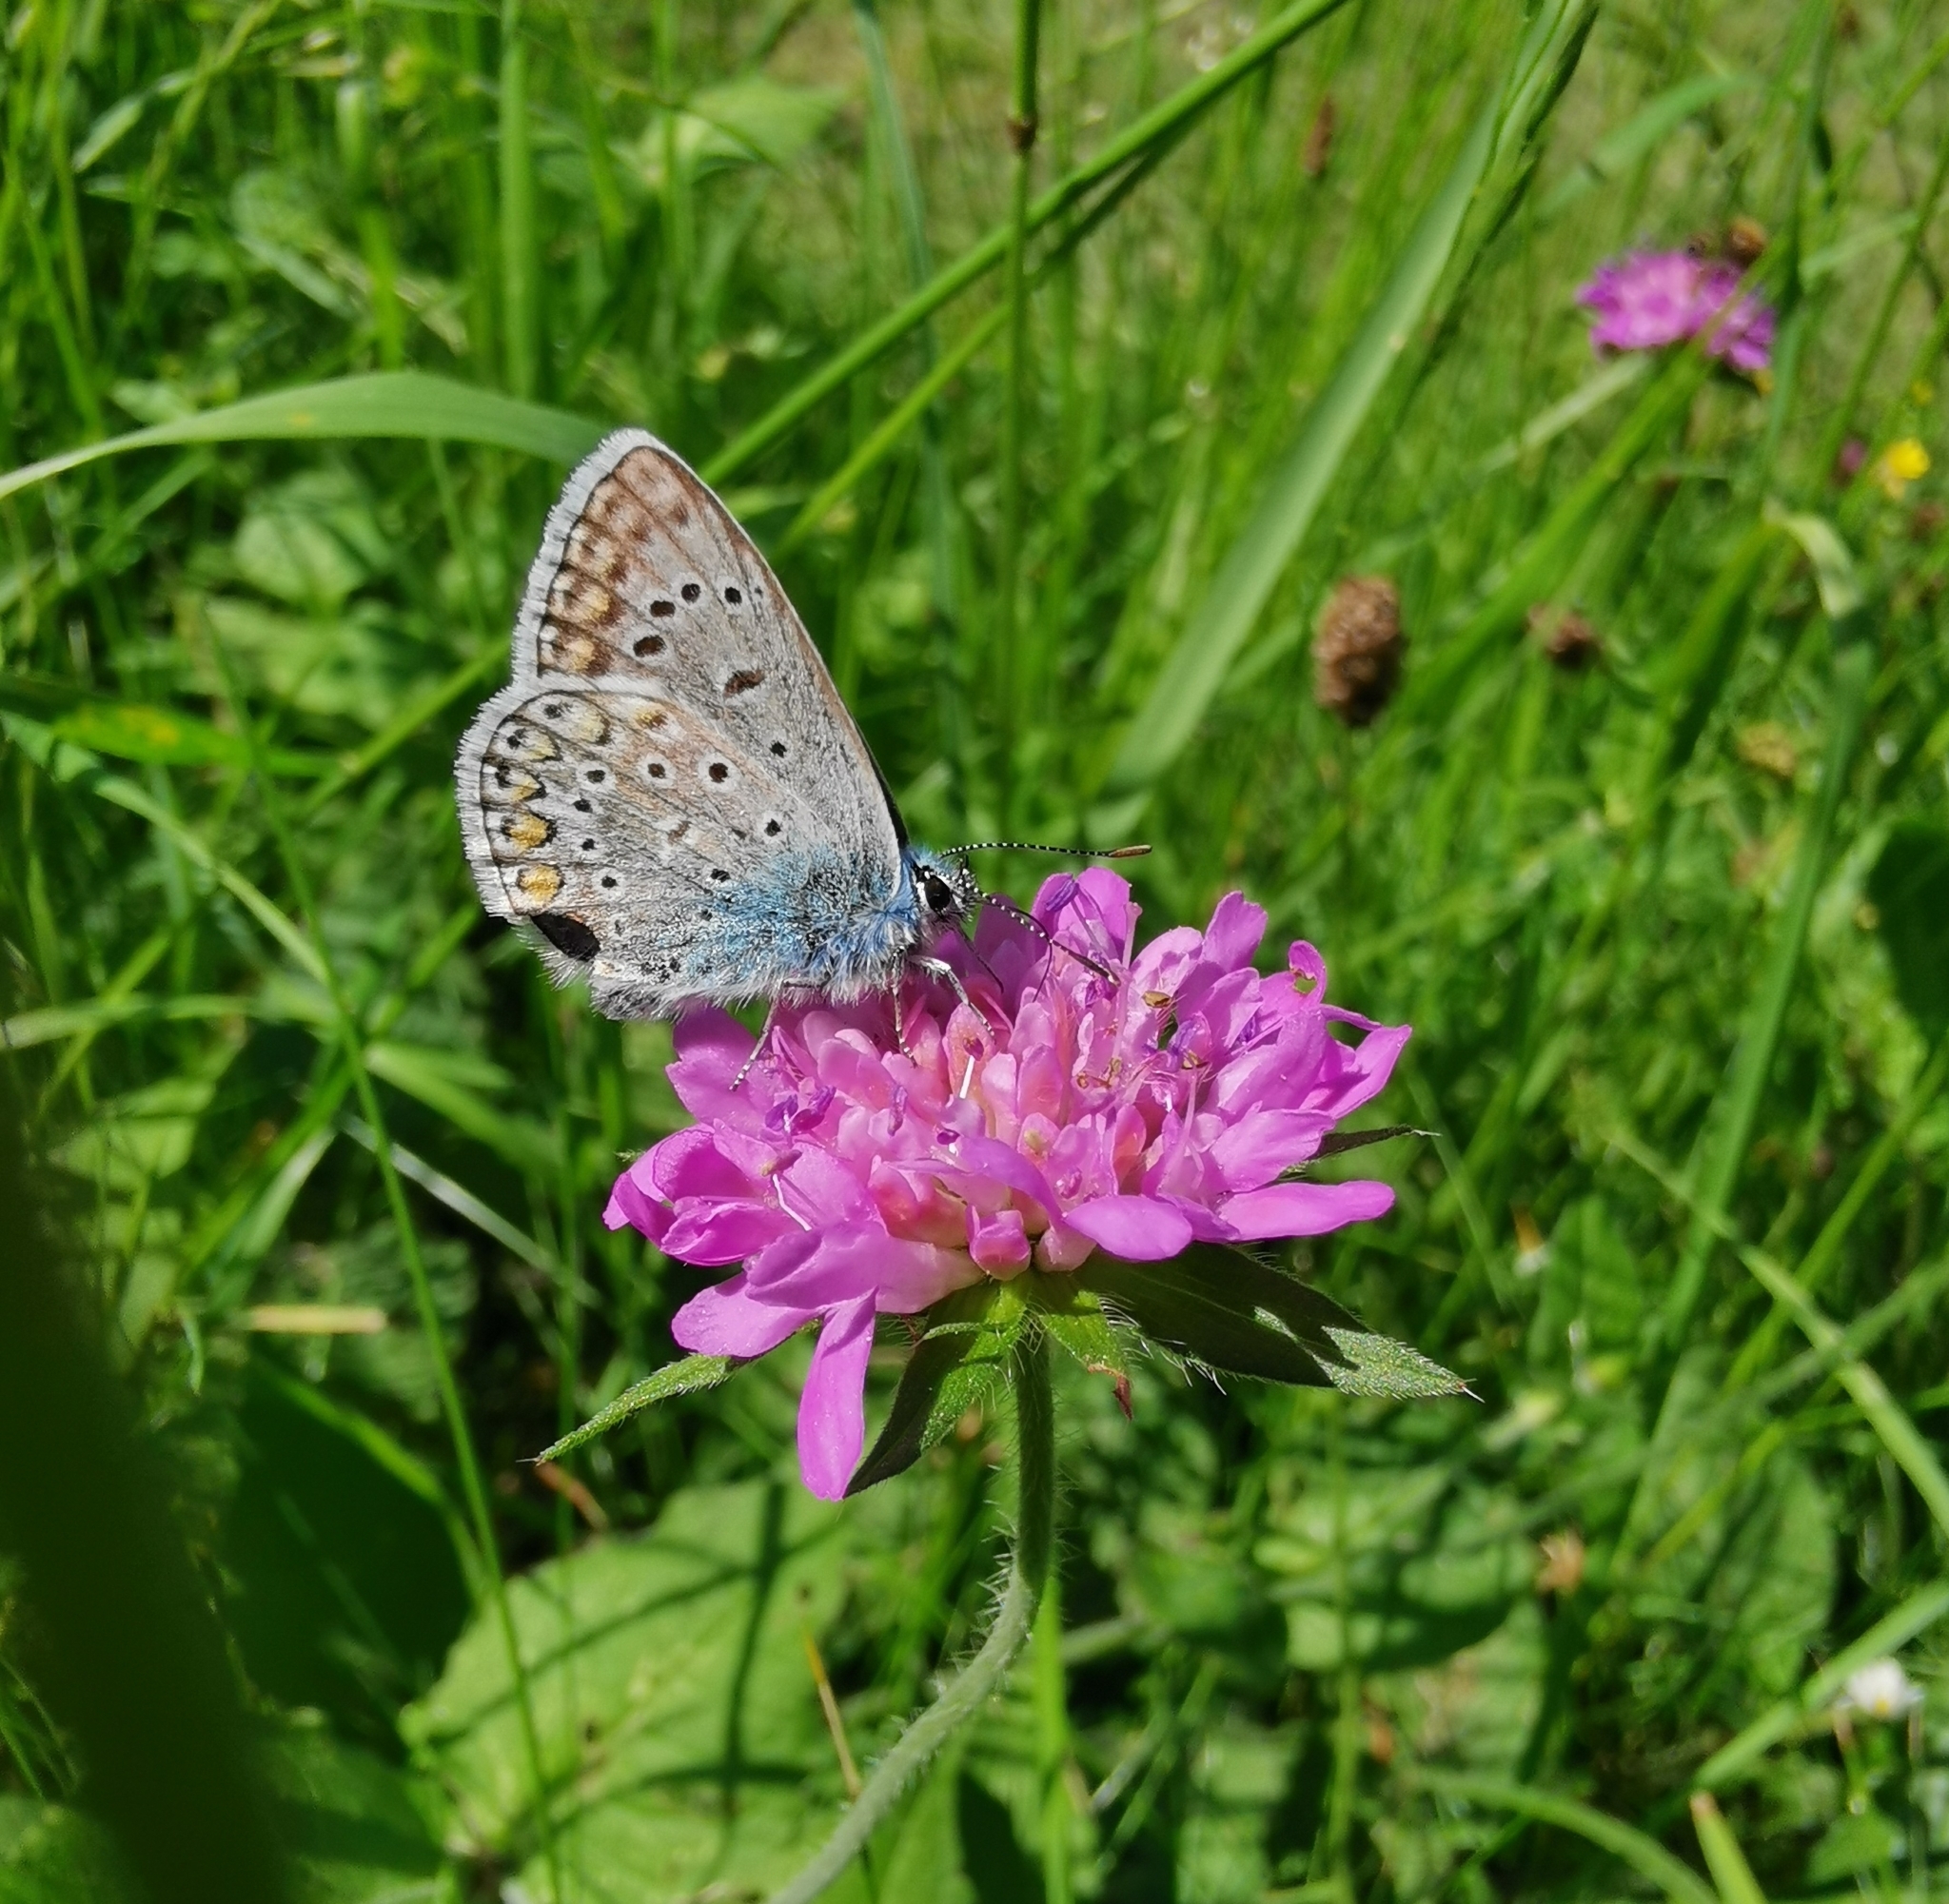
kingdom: Animalia
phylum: Arthropoda
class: Insecta
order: Lepidoptera
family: Lycaenidae
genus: Polyommatus
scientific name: Polyommatus icarus
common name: Common blue
